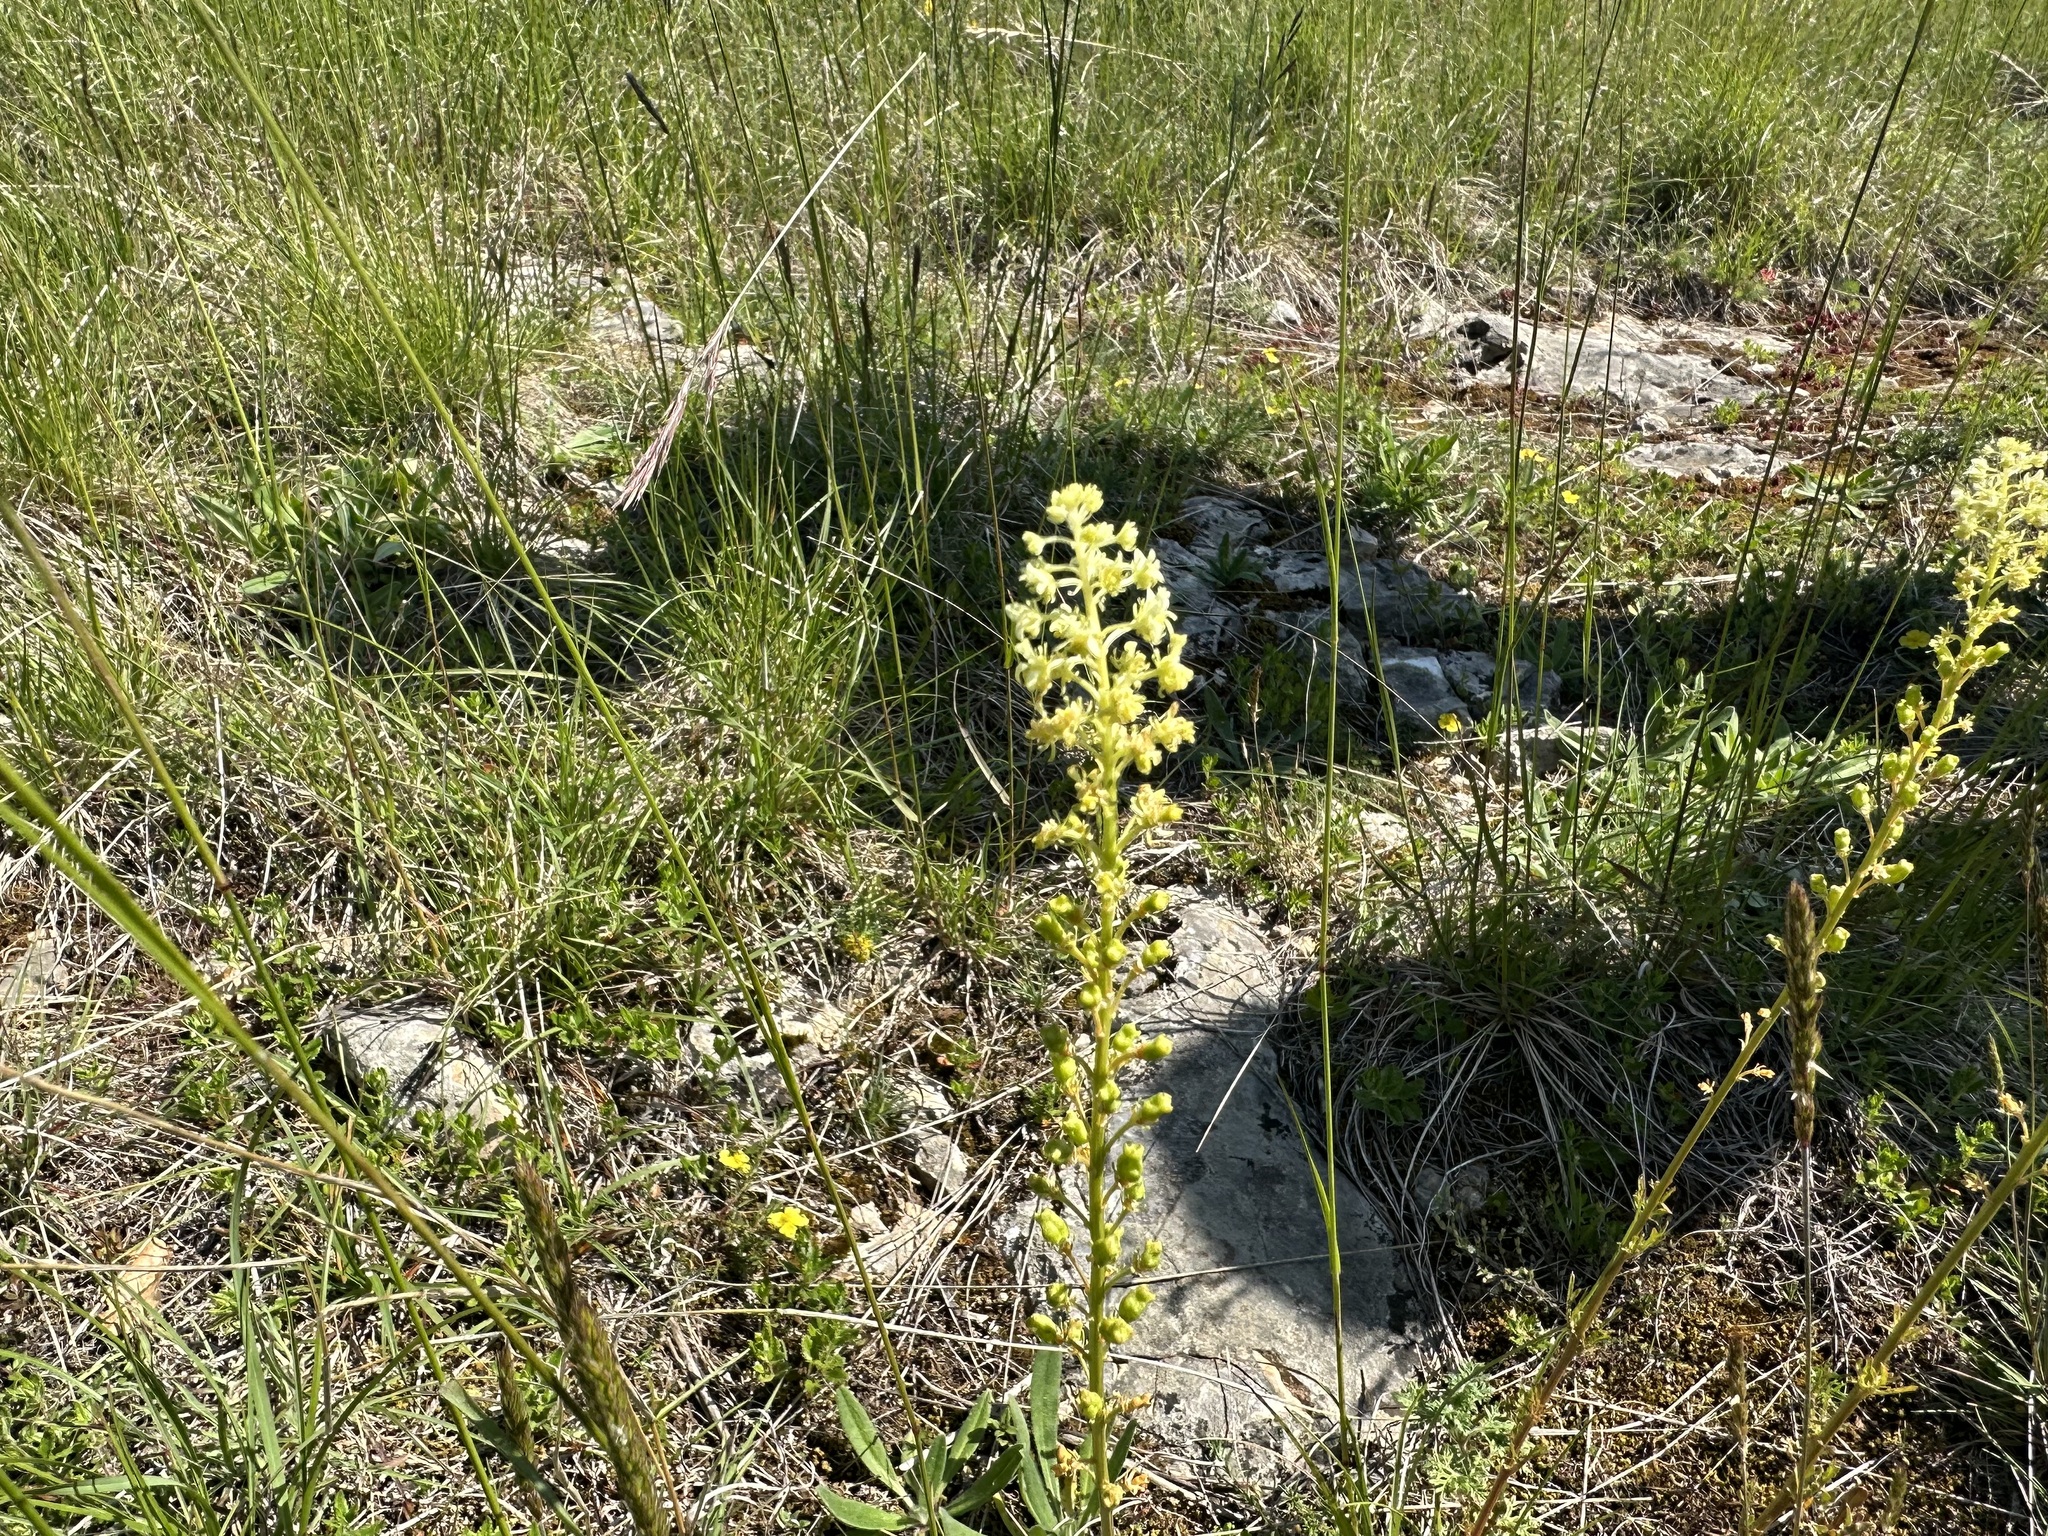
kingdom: Plantae
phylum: Tracheophyta
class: Magnoliopsida
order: Brassicales
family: Resedaceae
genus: Reseda
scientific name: Reseda lutea
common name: Wild mignonette
